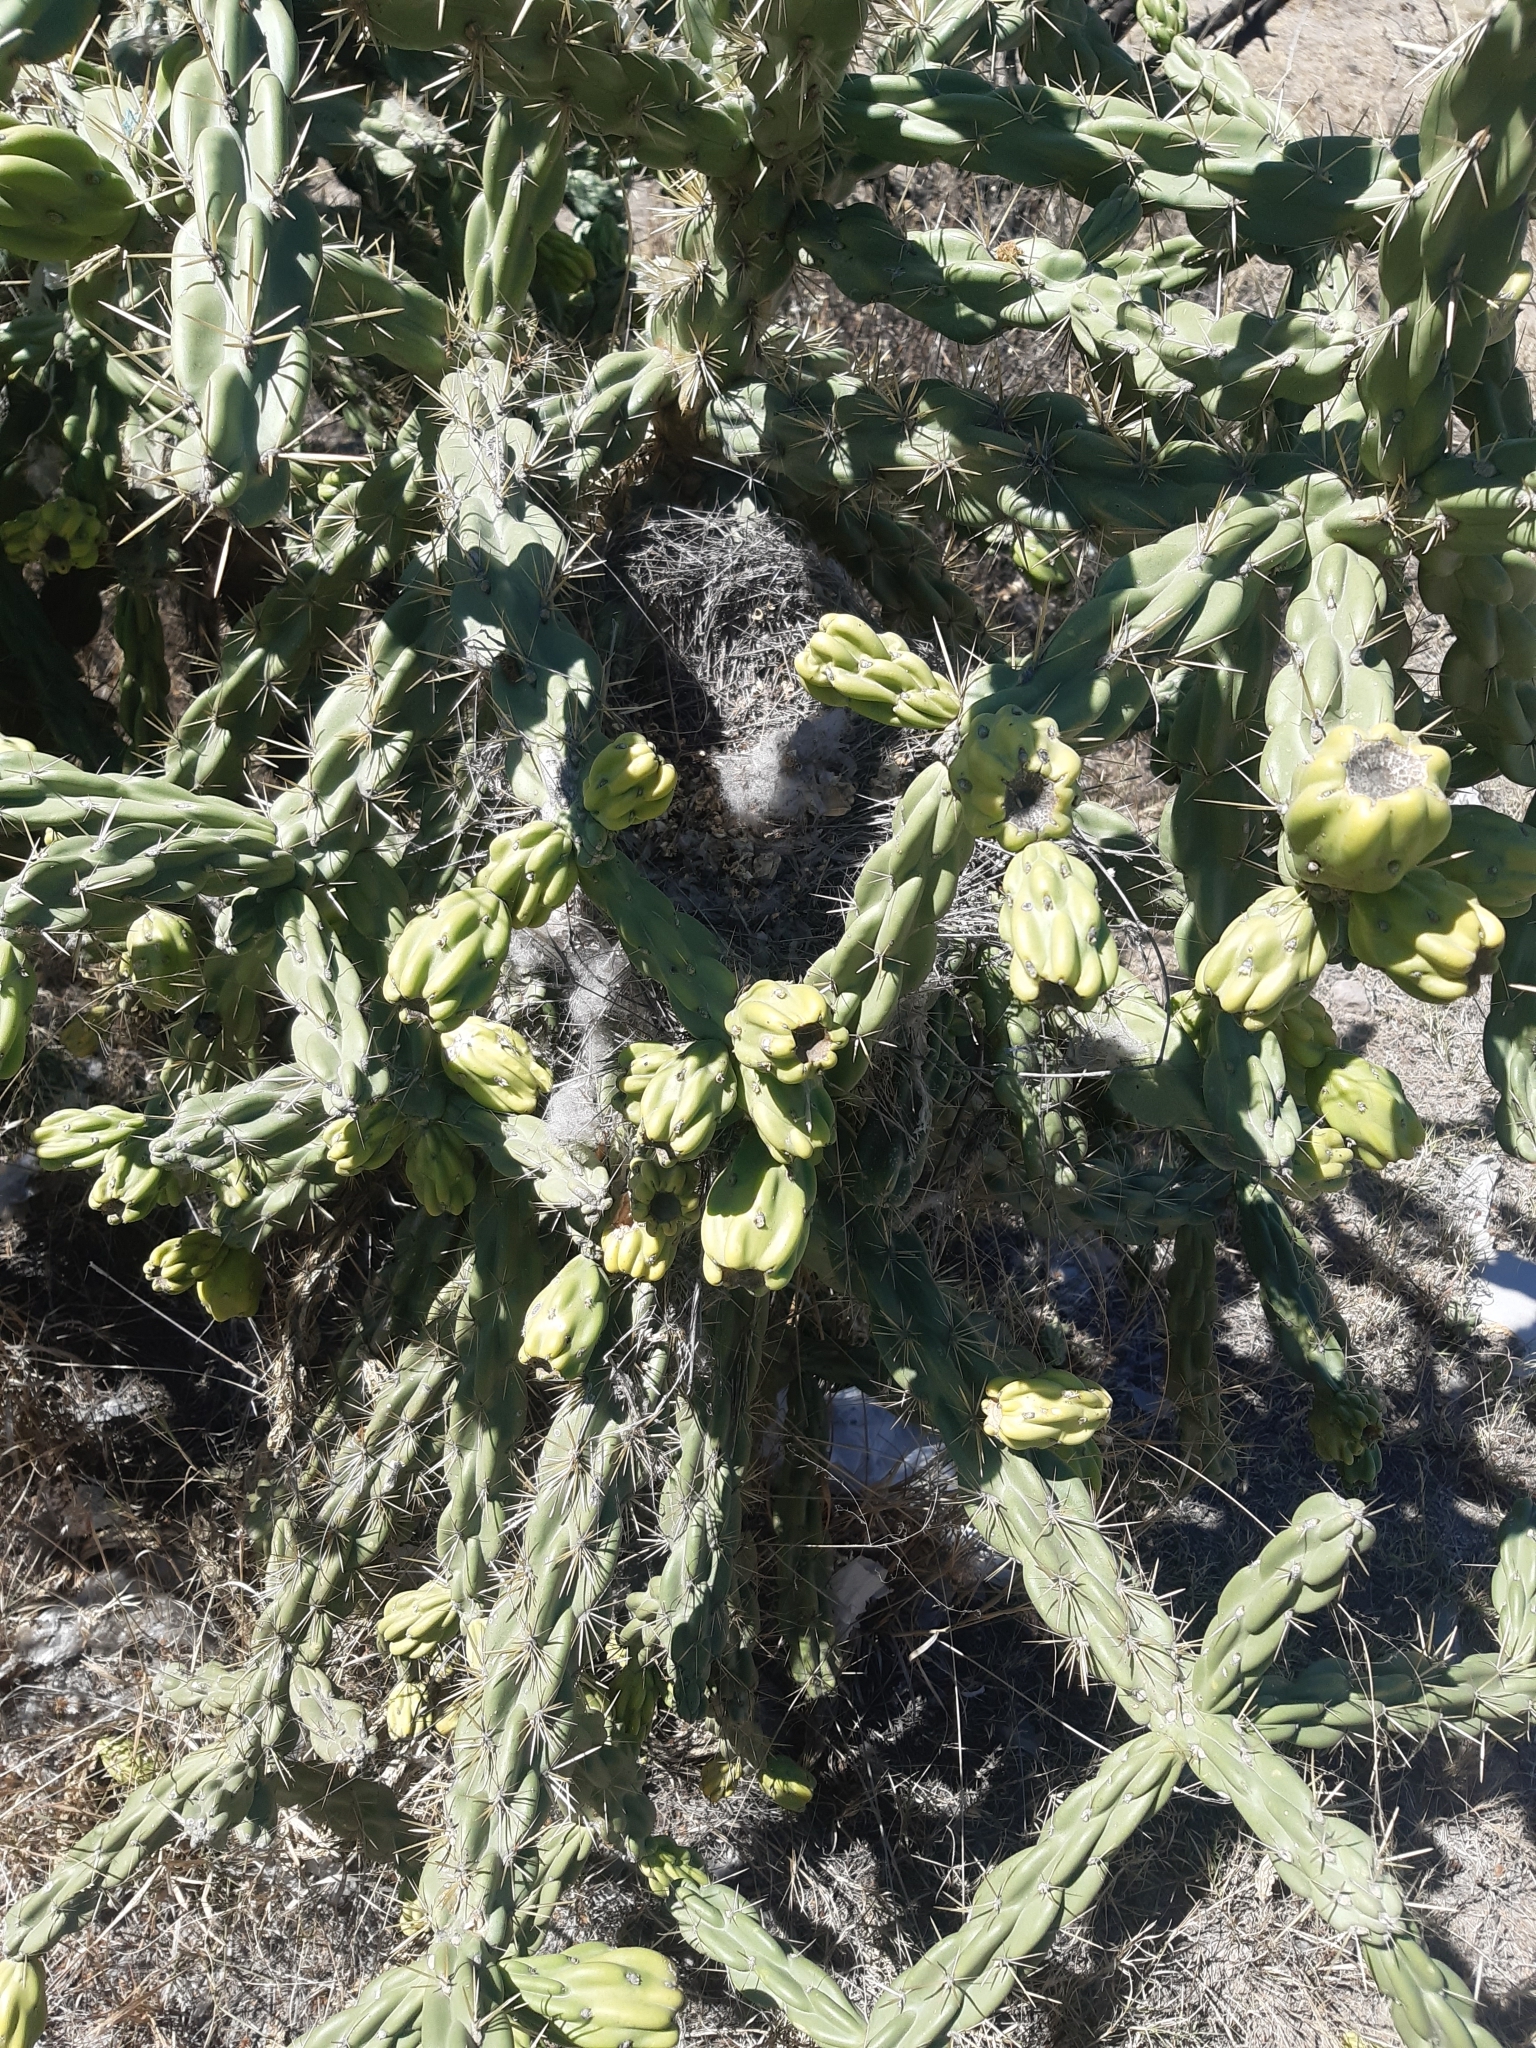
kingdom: Plantae
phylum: Tracheophyta
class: Magnoliopsida
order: Caryophyllales
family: Cactaceae
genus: Cylindropuntia
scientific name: Cylindropuntia imbricata
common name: Candelabrum cactus
